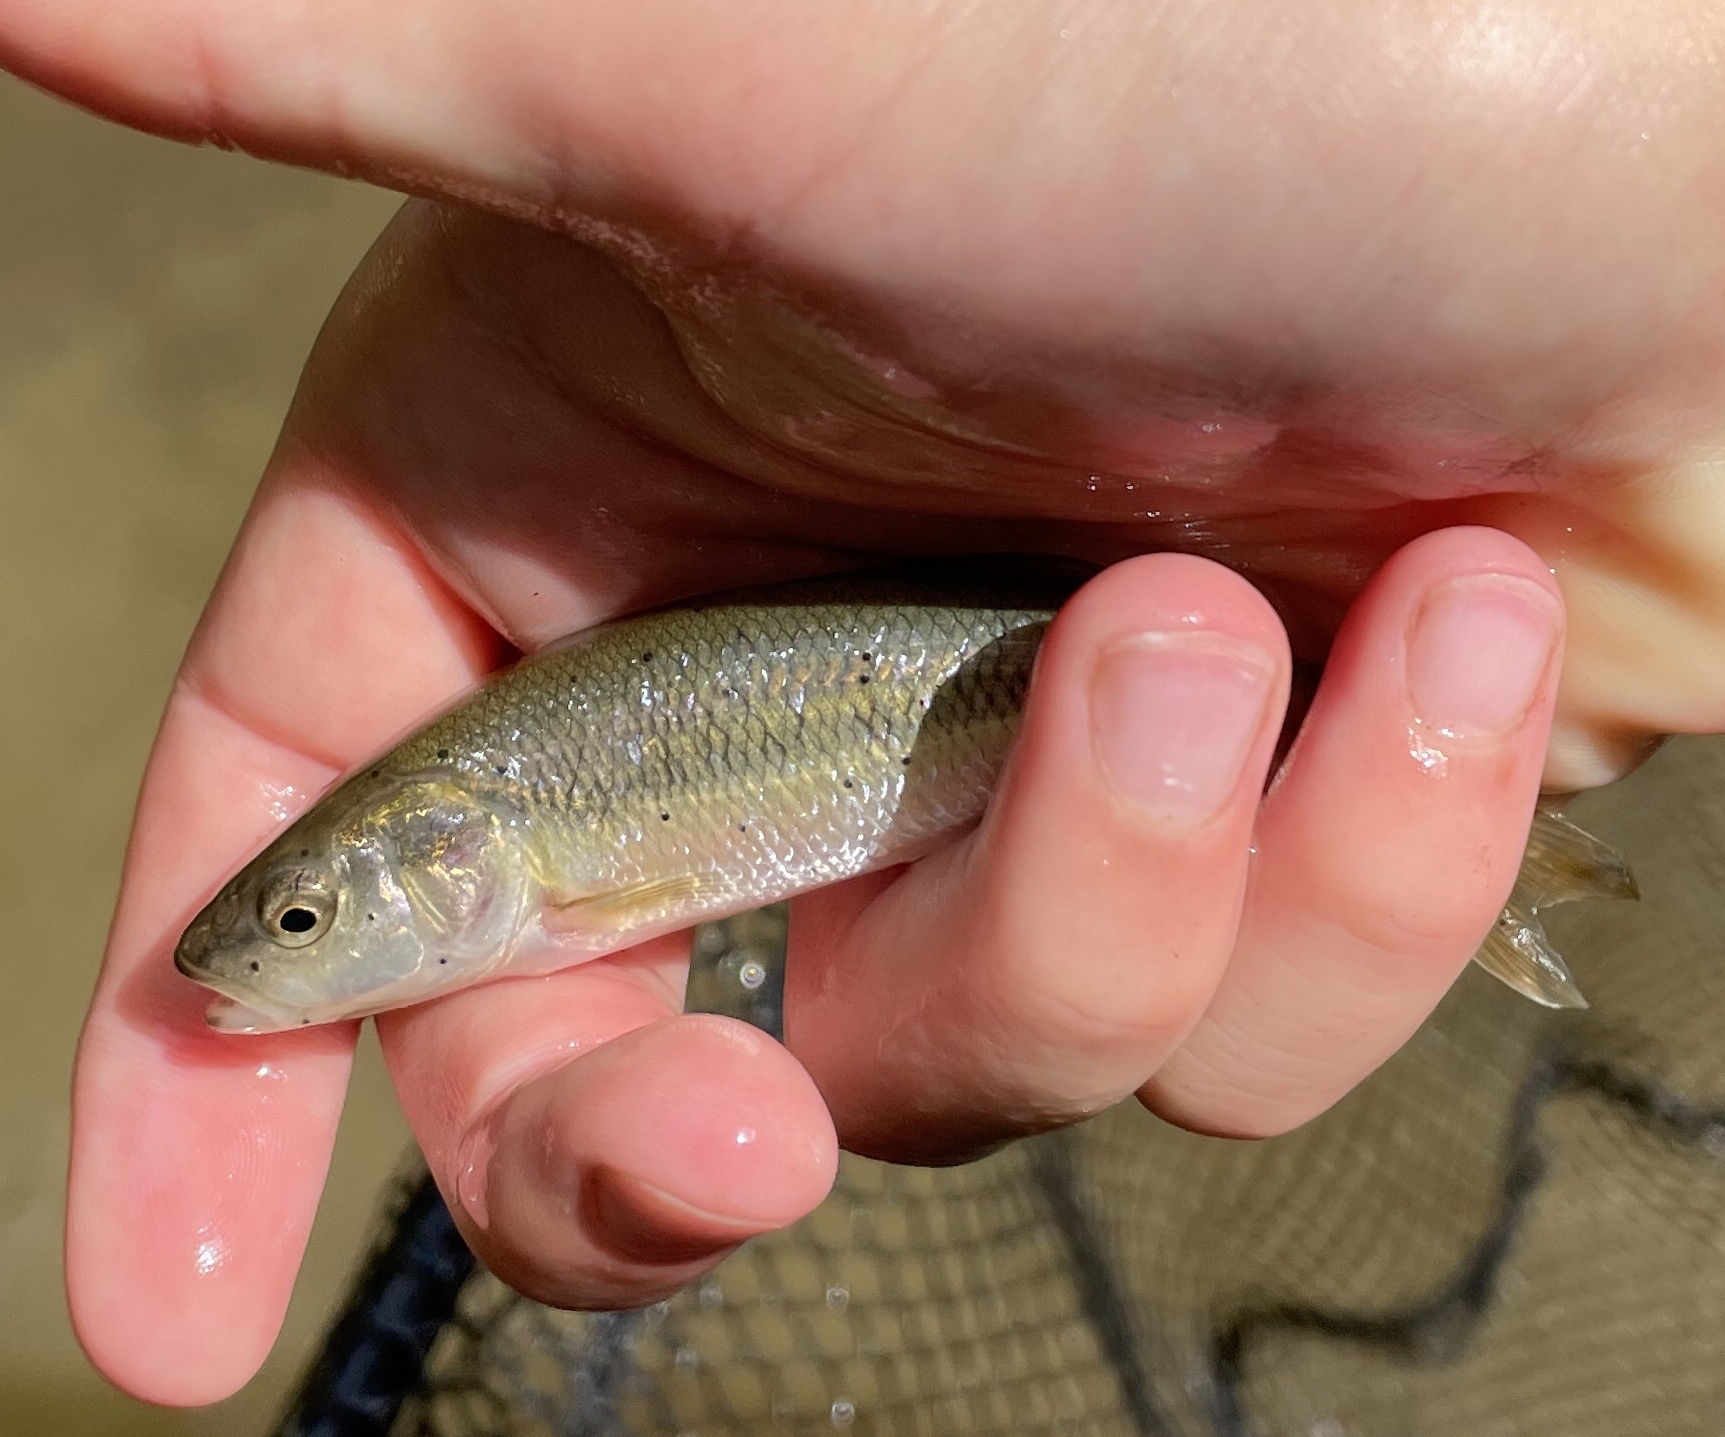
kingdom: Animalia
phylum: Chordata
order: Cypriniformes
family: Cyprinidae
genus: Semotilus
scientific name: Semotilus atromaculatus
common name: Creek chub
